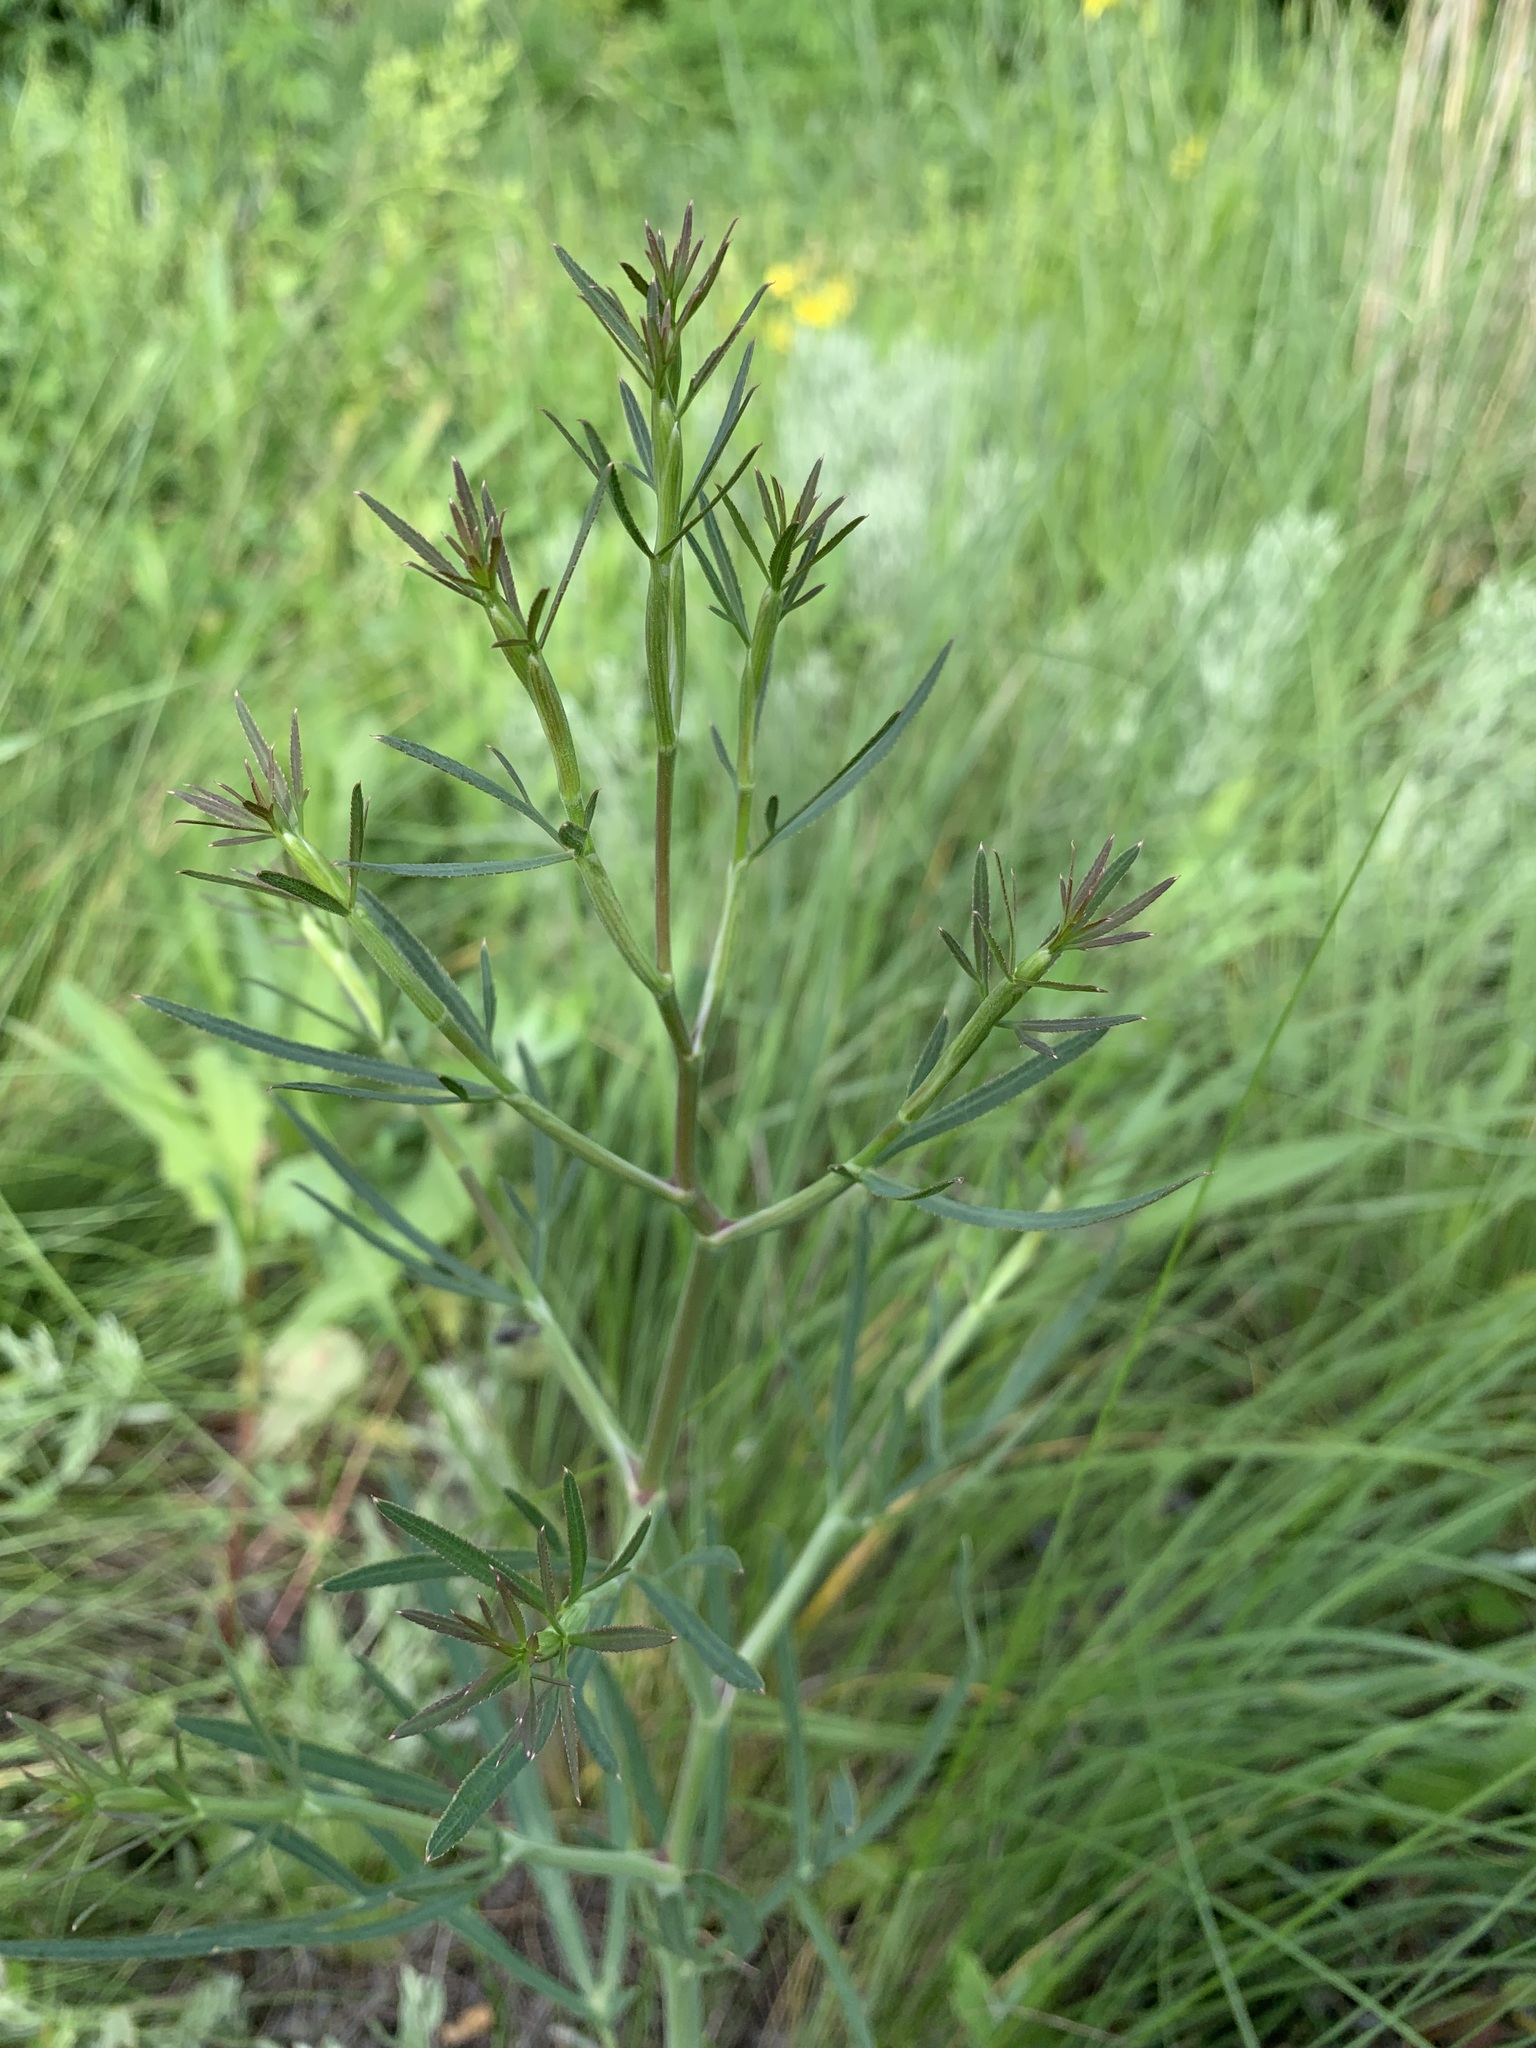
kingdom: Plantae
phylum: Tracheophyta
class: Magnoliopsida
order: Apiales
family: Apiaceae
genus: Falcaria
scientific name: Falcaria vulgaris
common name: Longleaf
